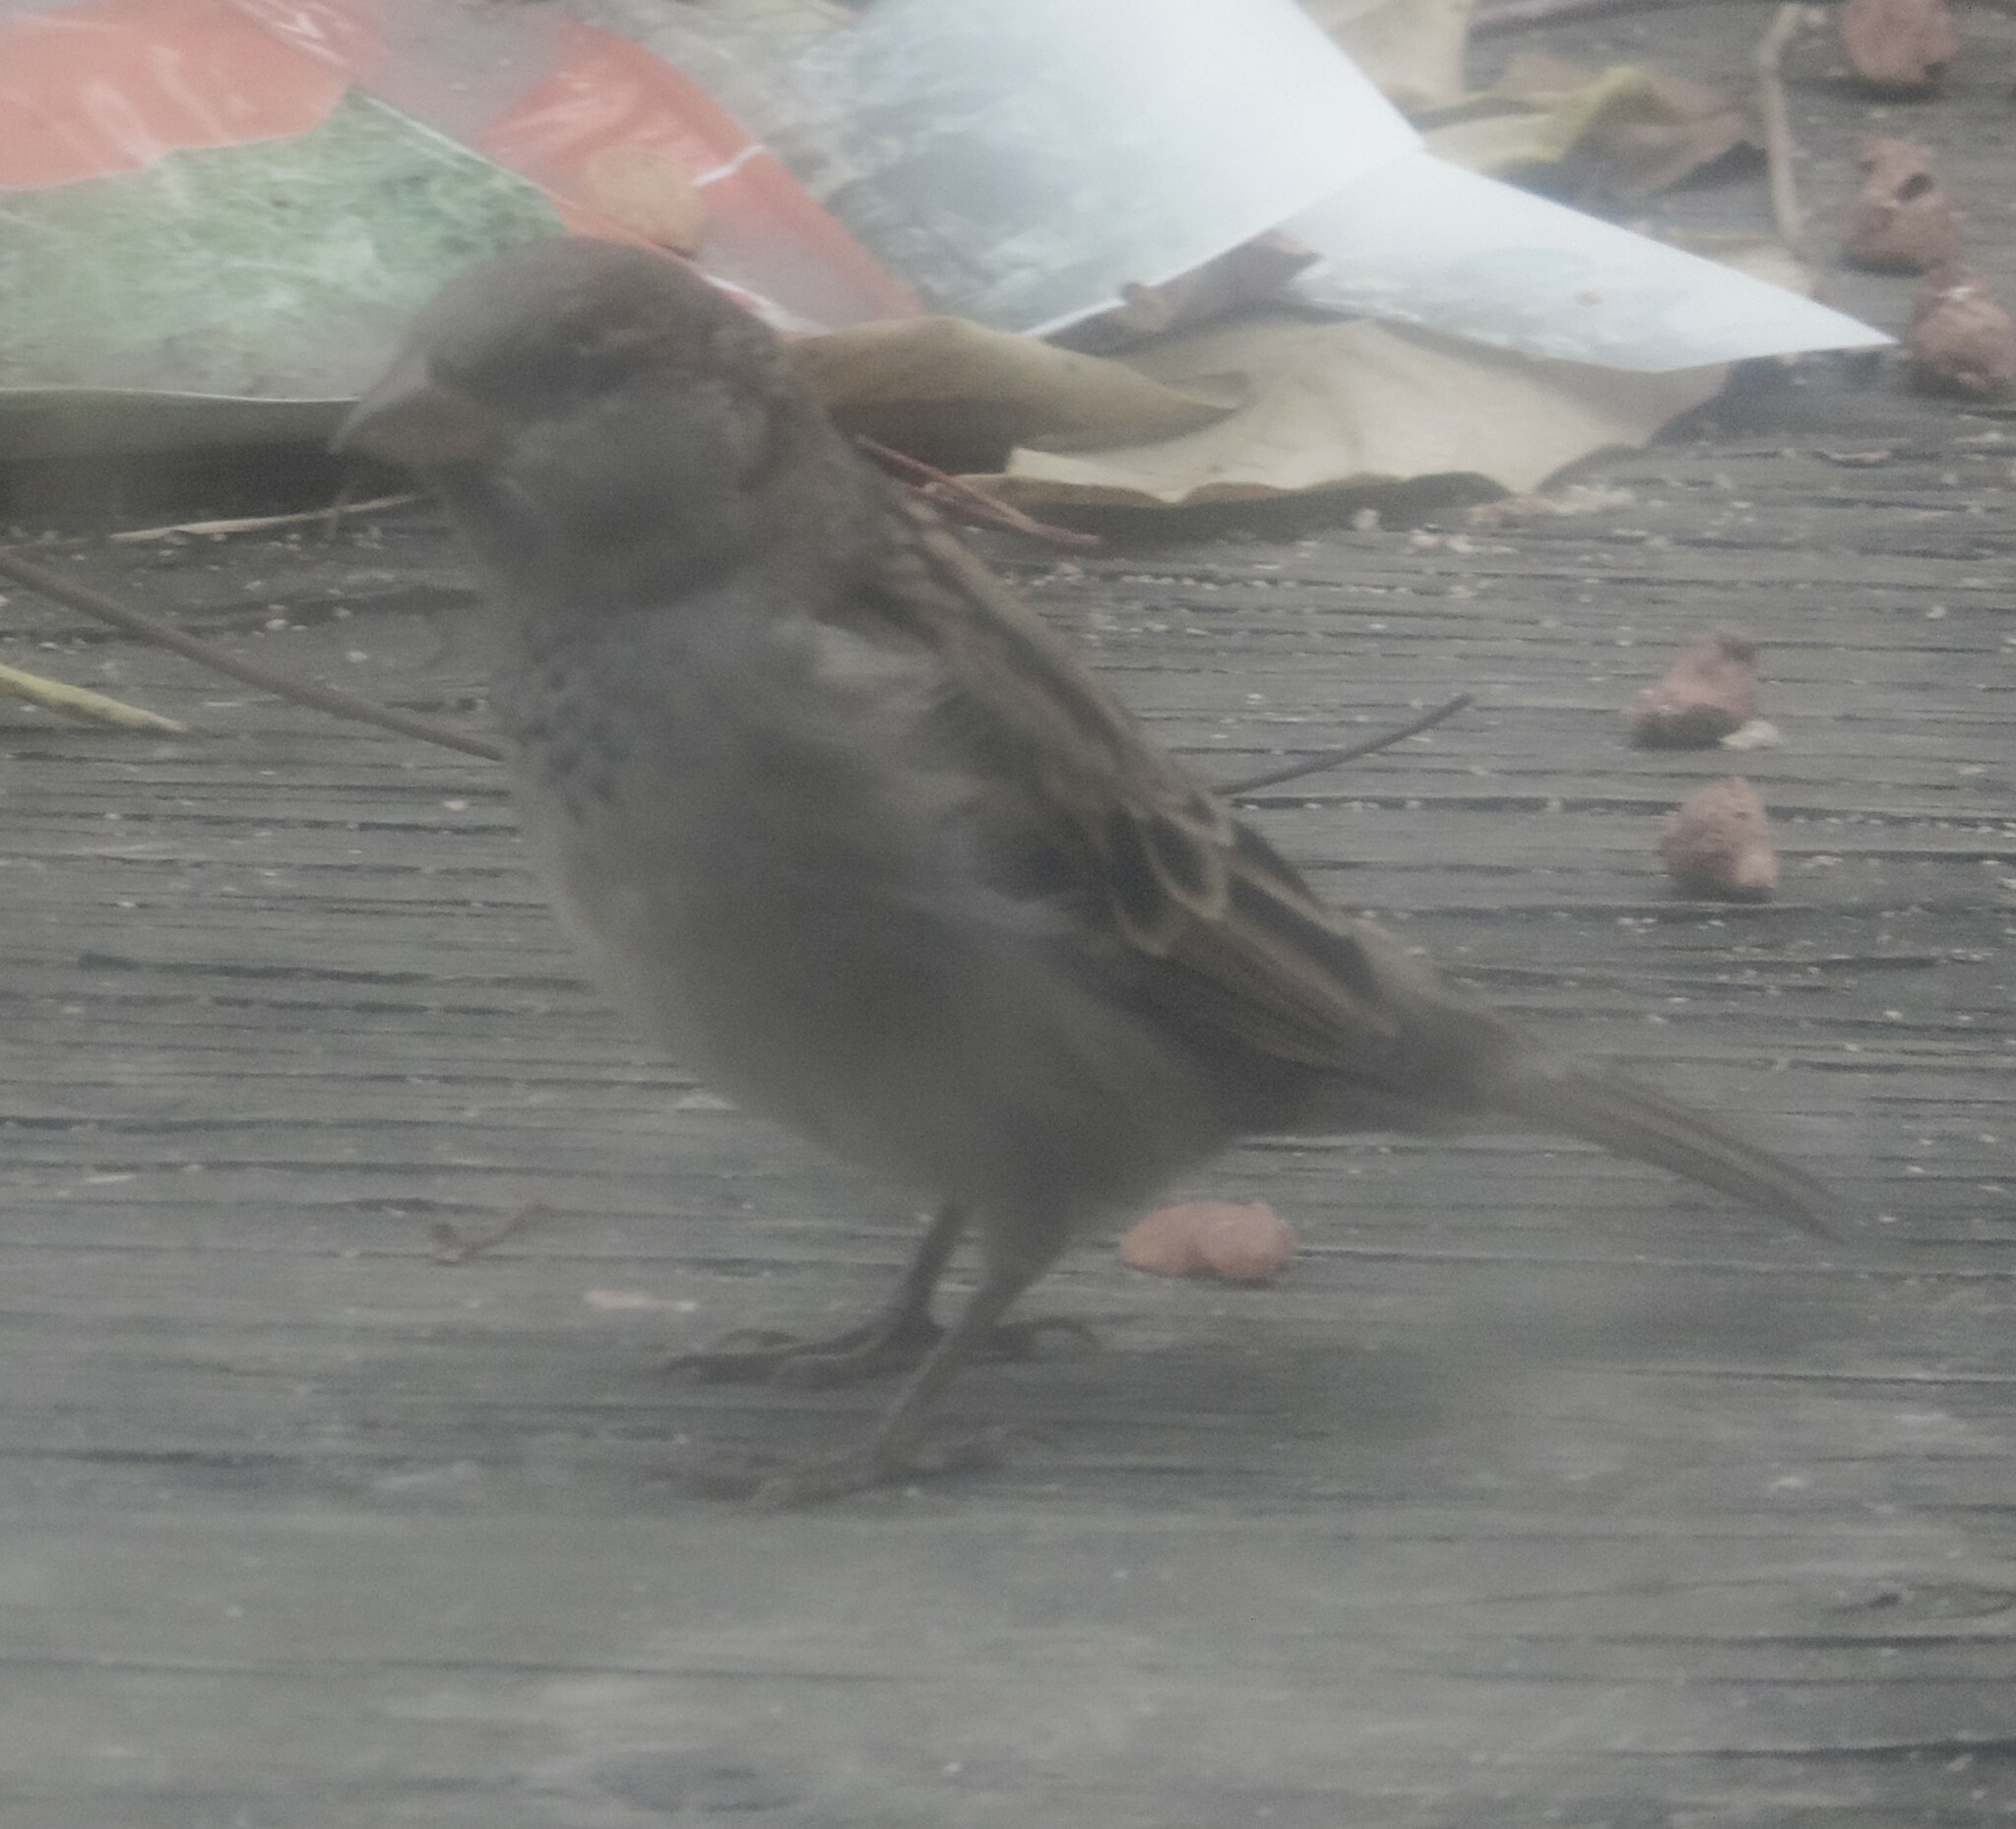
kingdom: Animalia
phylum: Chordata
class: Aves
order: Passeriformes
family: Passeridae
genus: Passer
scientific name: Passer domesticus
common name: House sparrow
